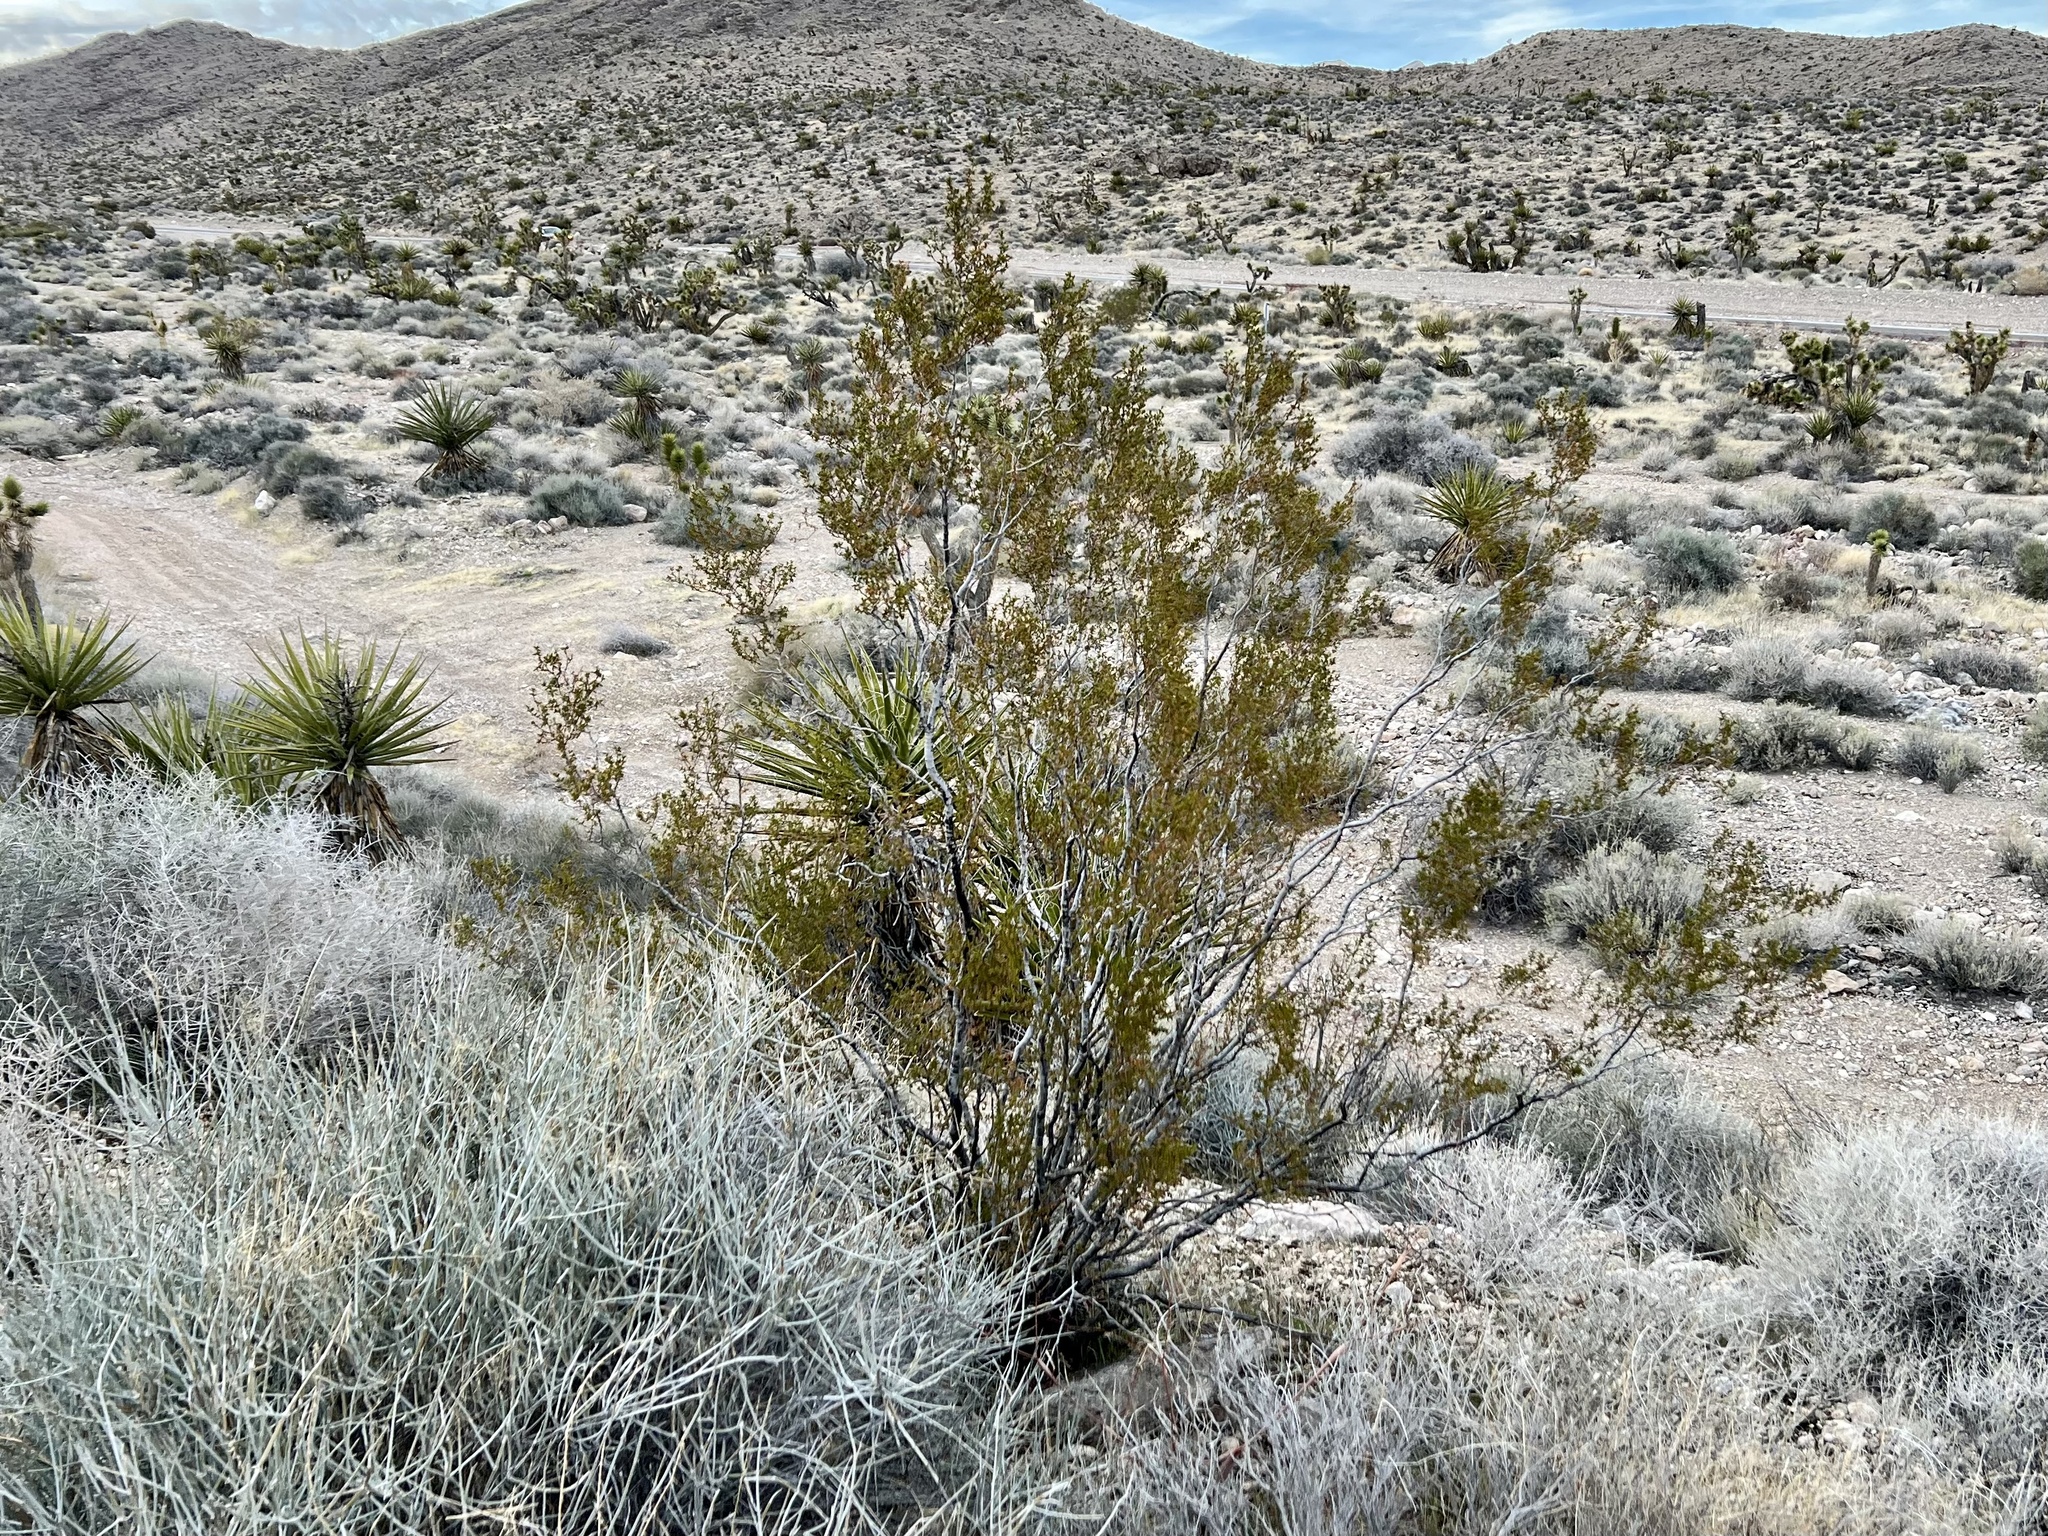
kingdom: Plantae
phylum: Tracheophyta
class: Magnoliopsida
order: Zygophyllales
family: Zygophyllaceae
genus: Larrea
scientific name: Larrea tridentata
